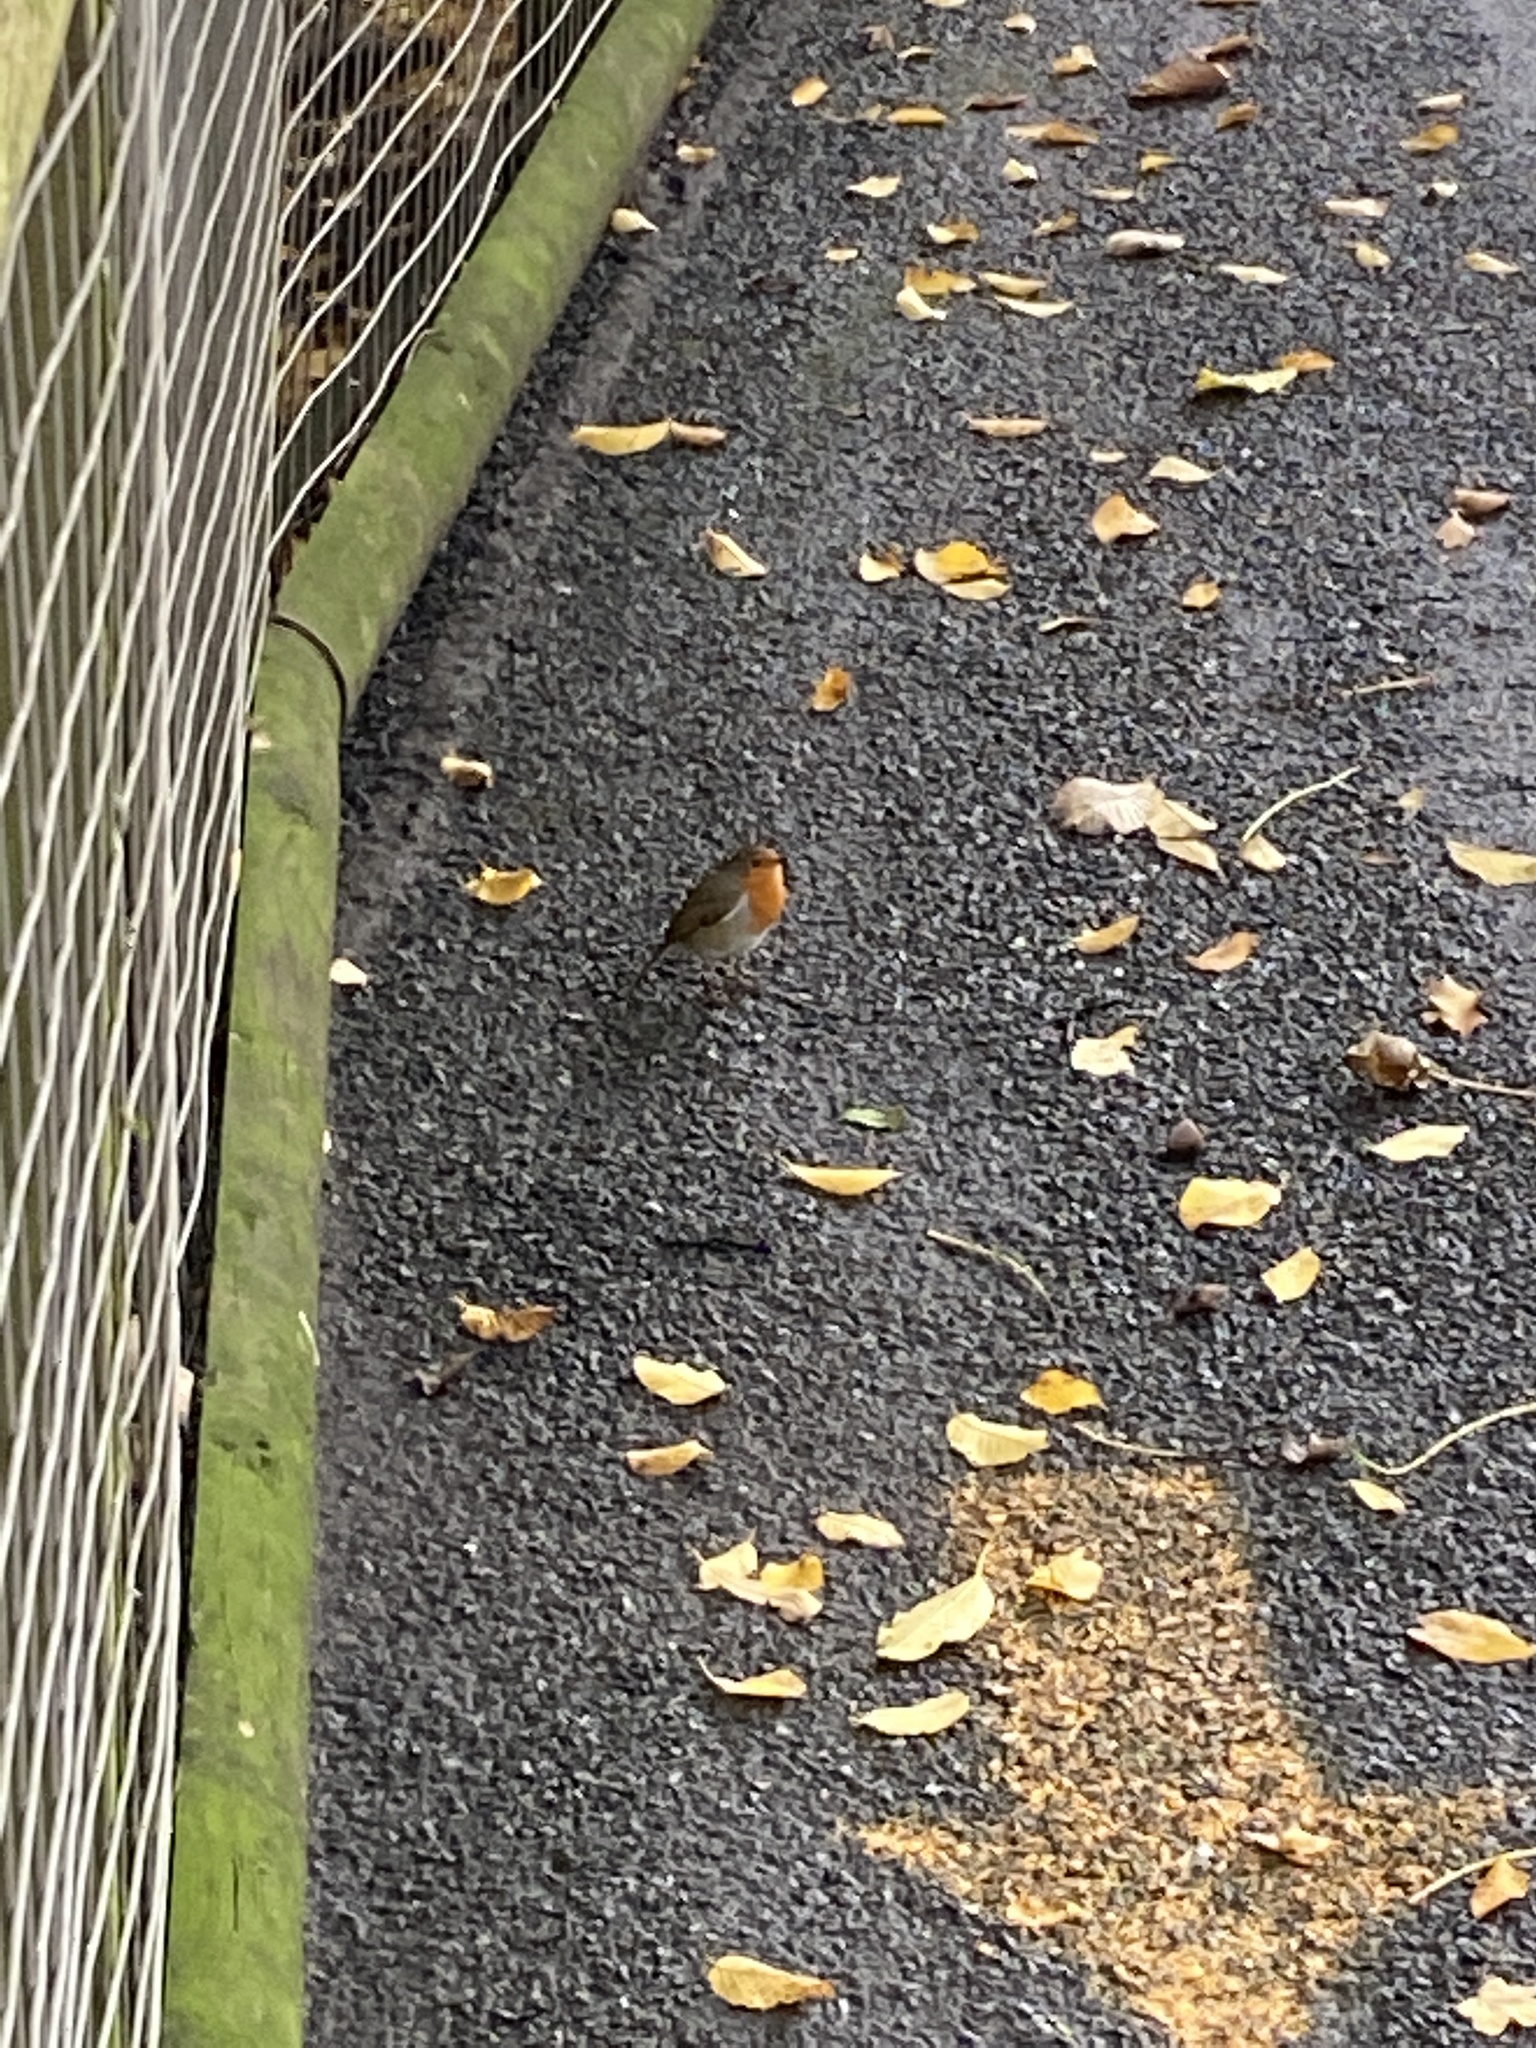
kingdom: Animalia
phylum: Chordata
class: Aves
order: Passeriformes
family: Muscicapidae
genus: Erithacus
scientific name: Erithacus rubecula
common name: European robin
